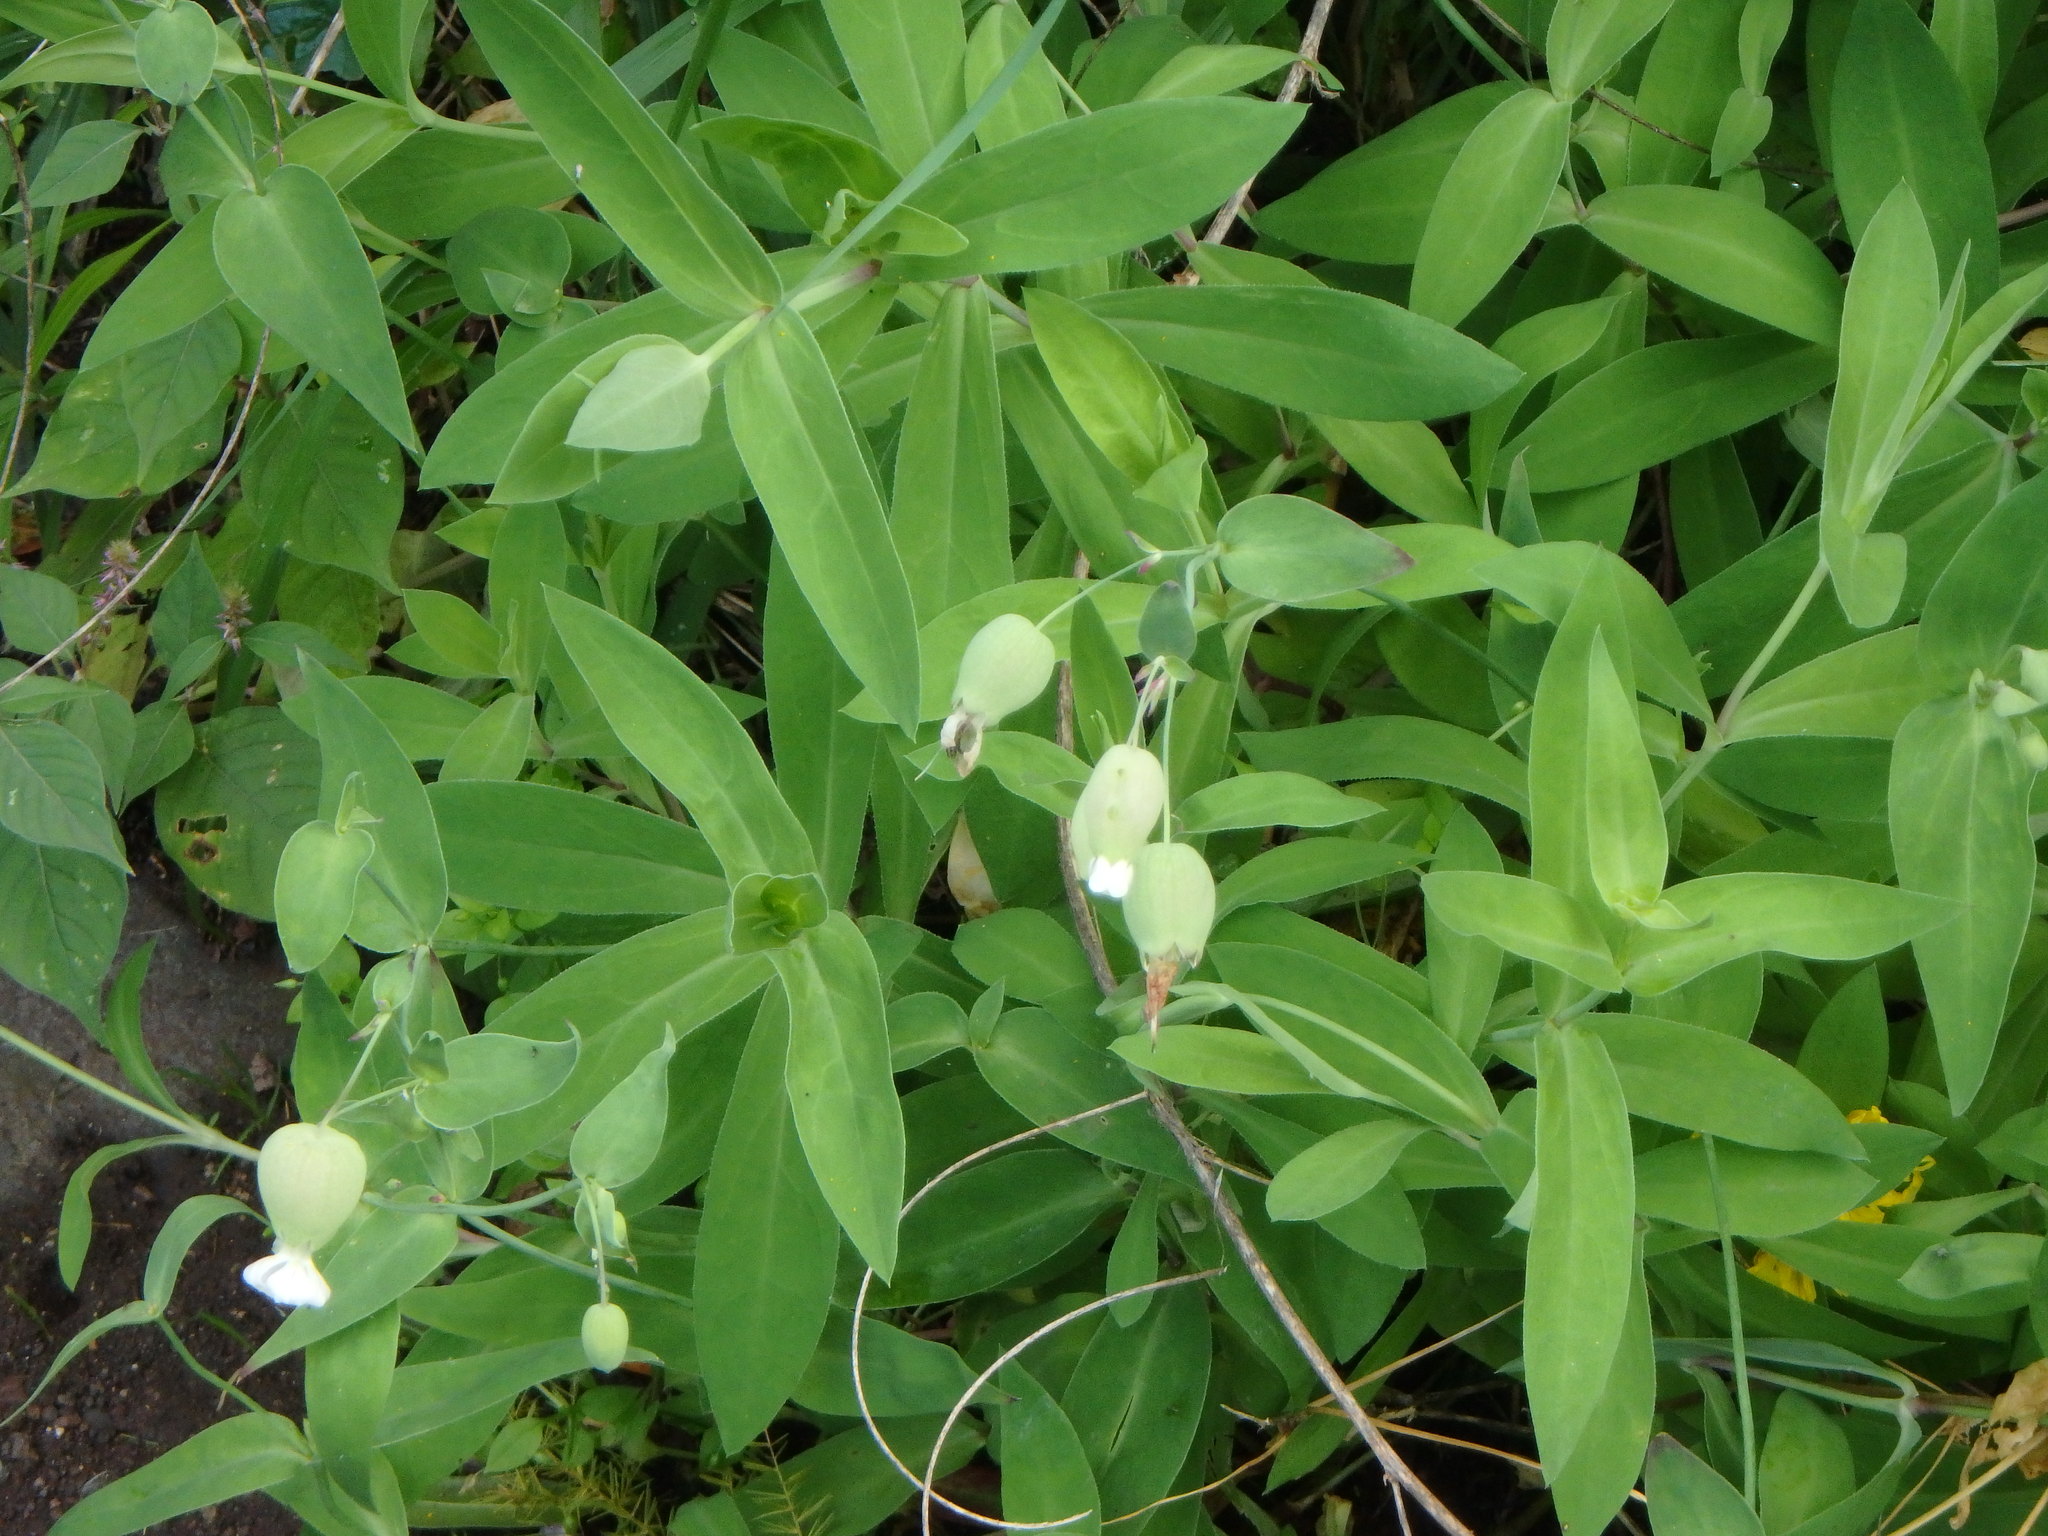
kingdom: Plantae
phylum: Tracheophyta
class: Magnoliopsida
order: Caryophyllales
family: Caryophyllaceae
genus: Silene
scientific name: Silene vulgaris
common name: Bladder campion
